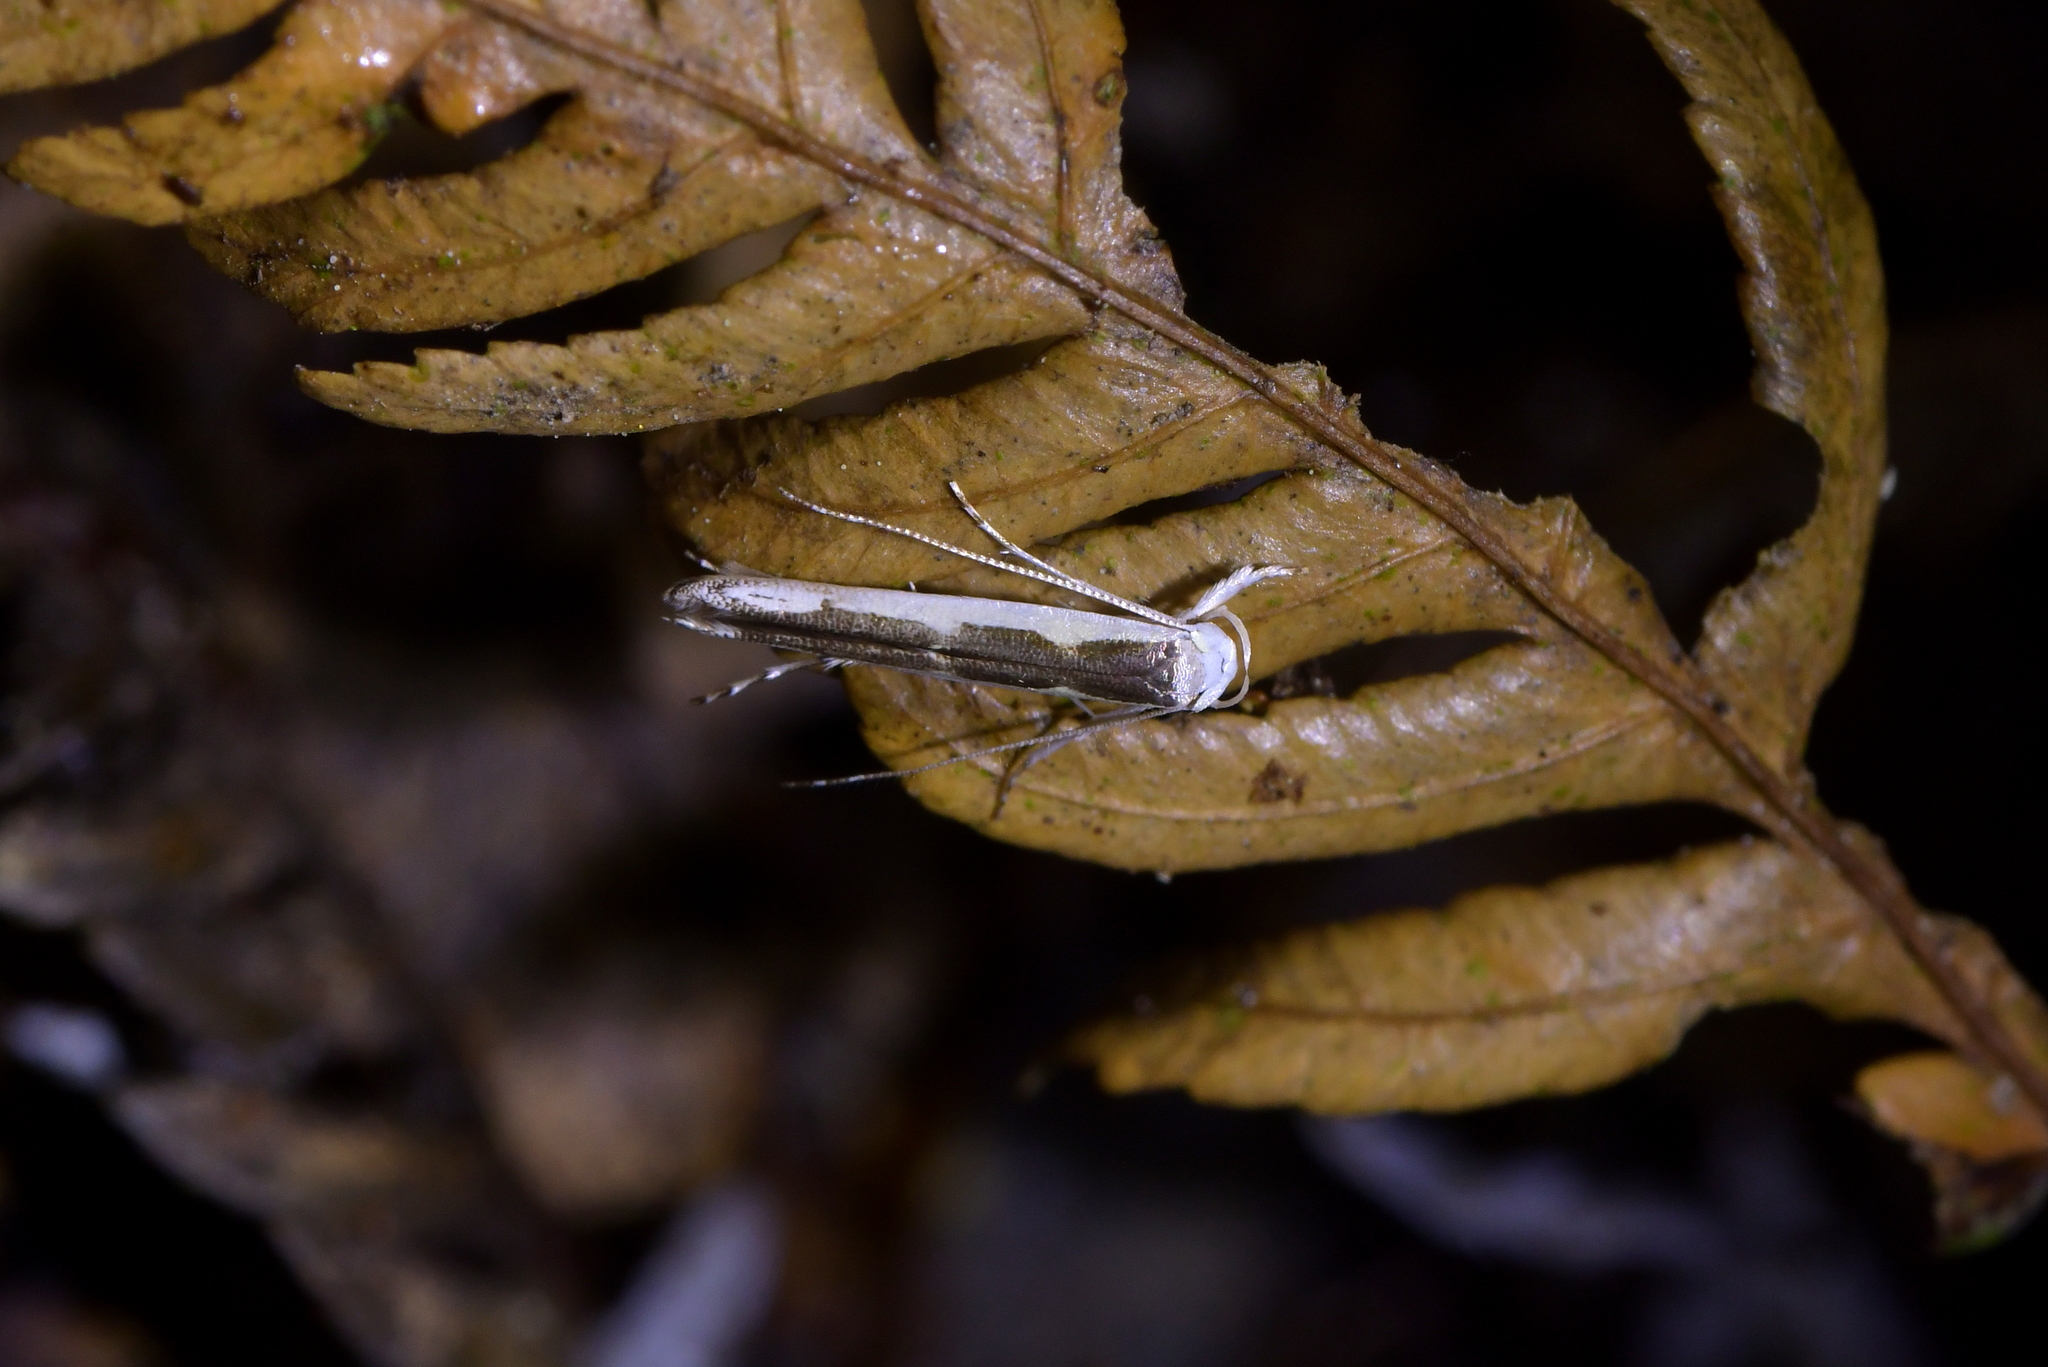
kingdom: Animalia
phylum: Arthropoda
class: Insecta
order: Lepidoptera
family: Roeslerstammiidae
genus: Vanicela
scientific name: Vanicela disjunctella
